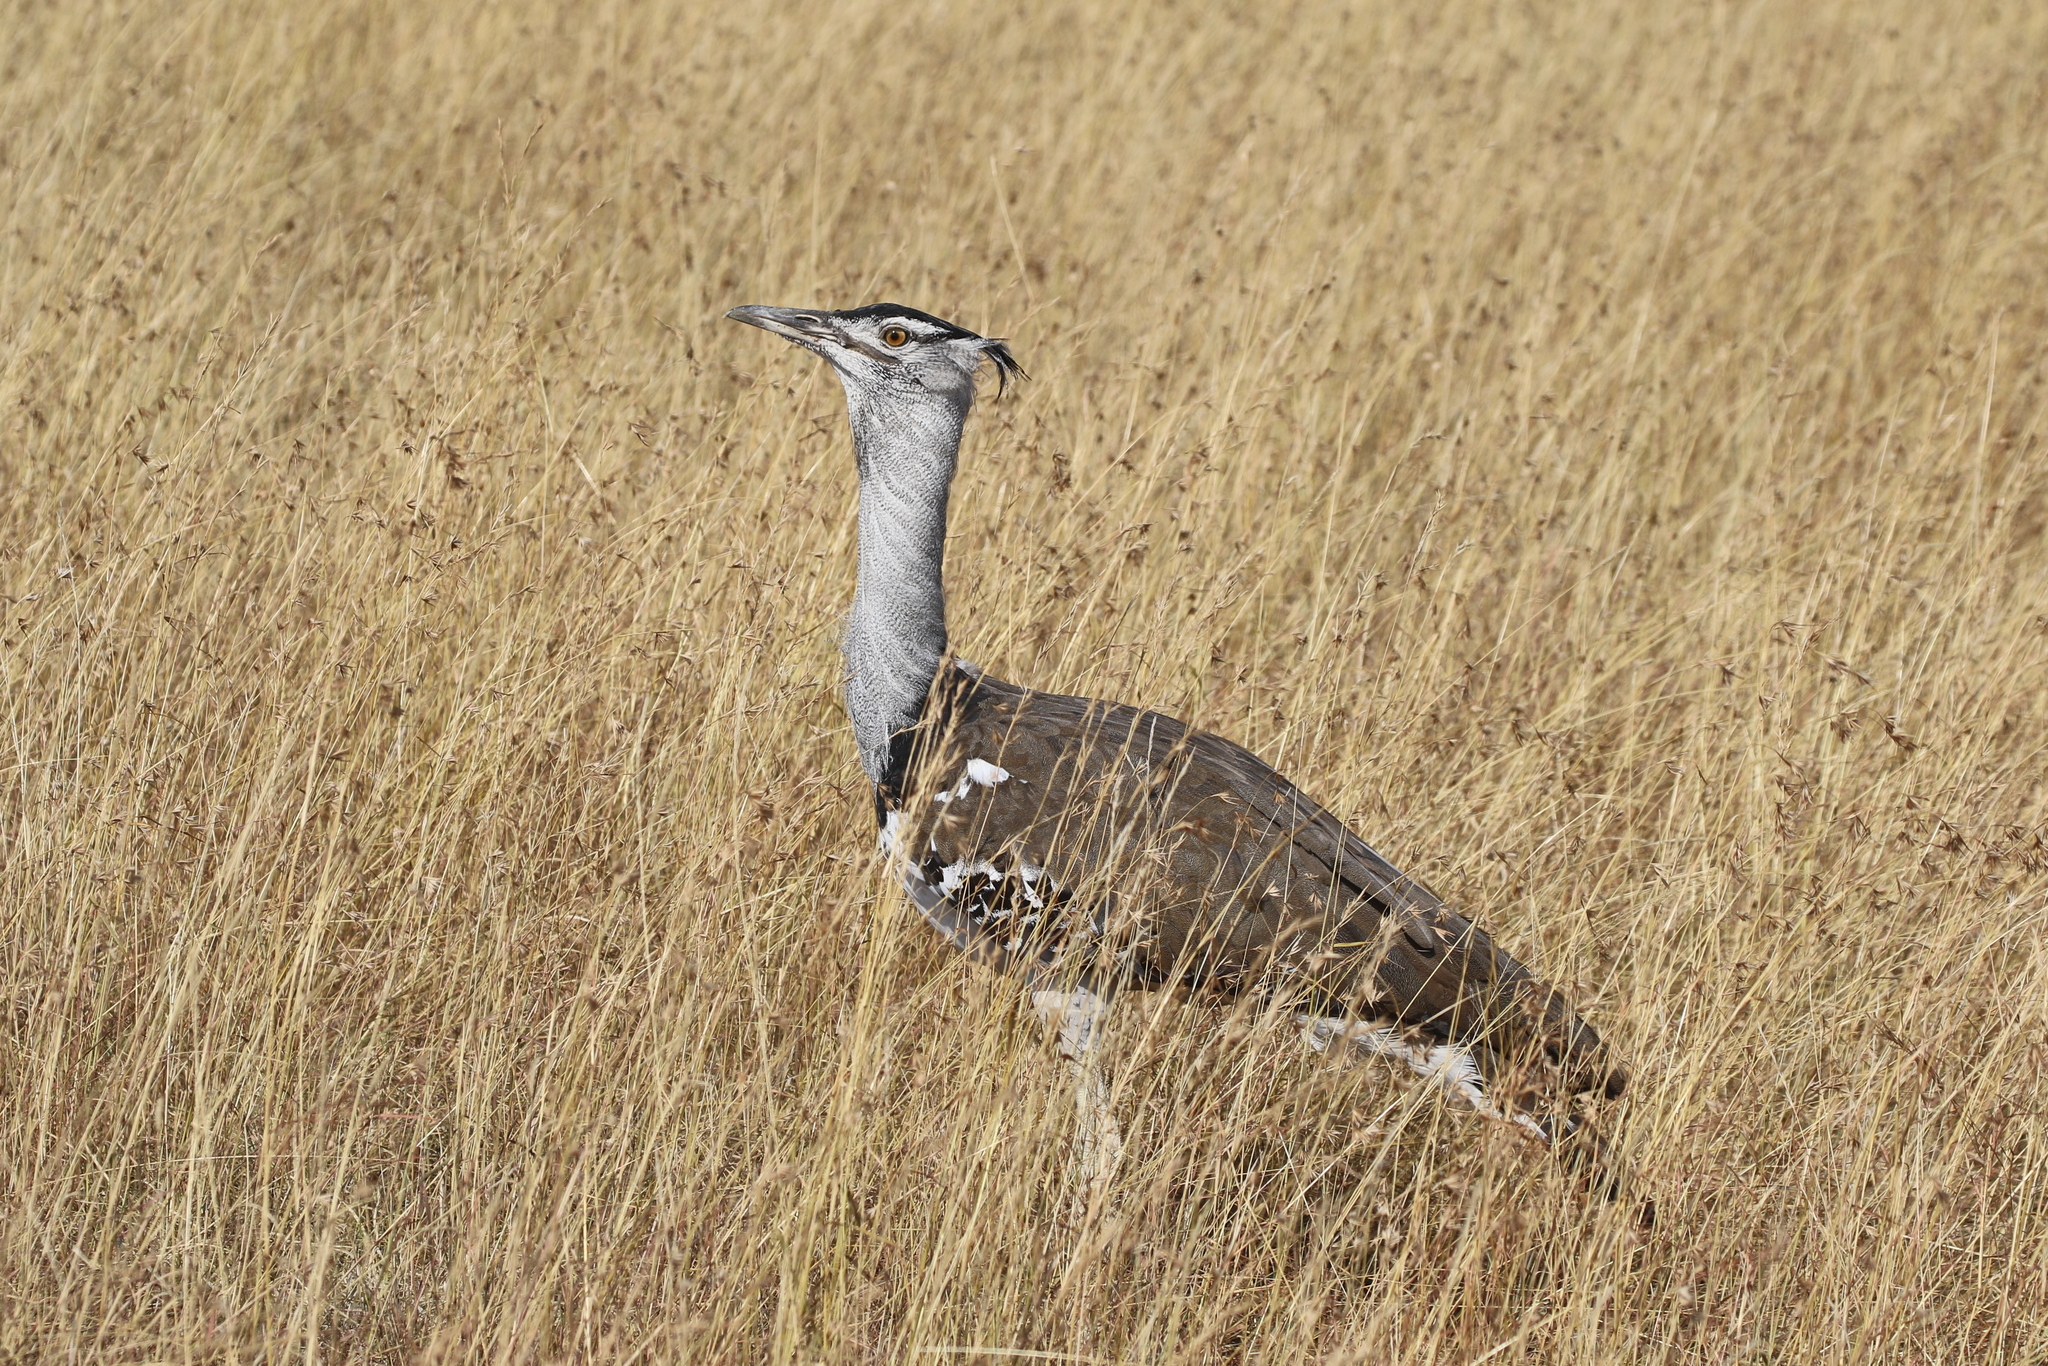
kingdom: Animalia
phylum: Chordata
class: Aves
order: Otidiformes
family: Otididae
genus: Ardeotis
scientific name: Ardeotis kori
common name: Kori bustard
